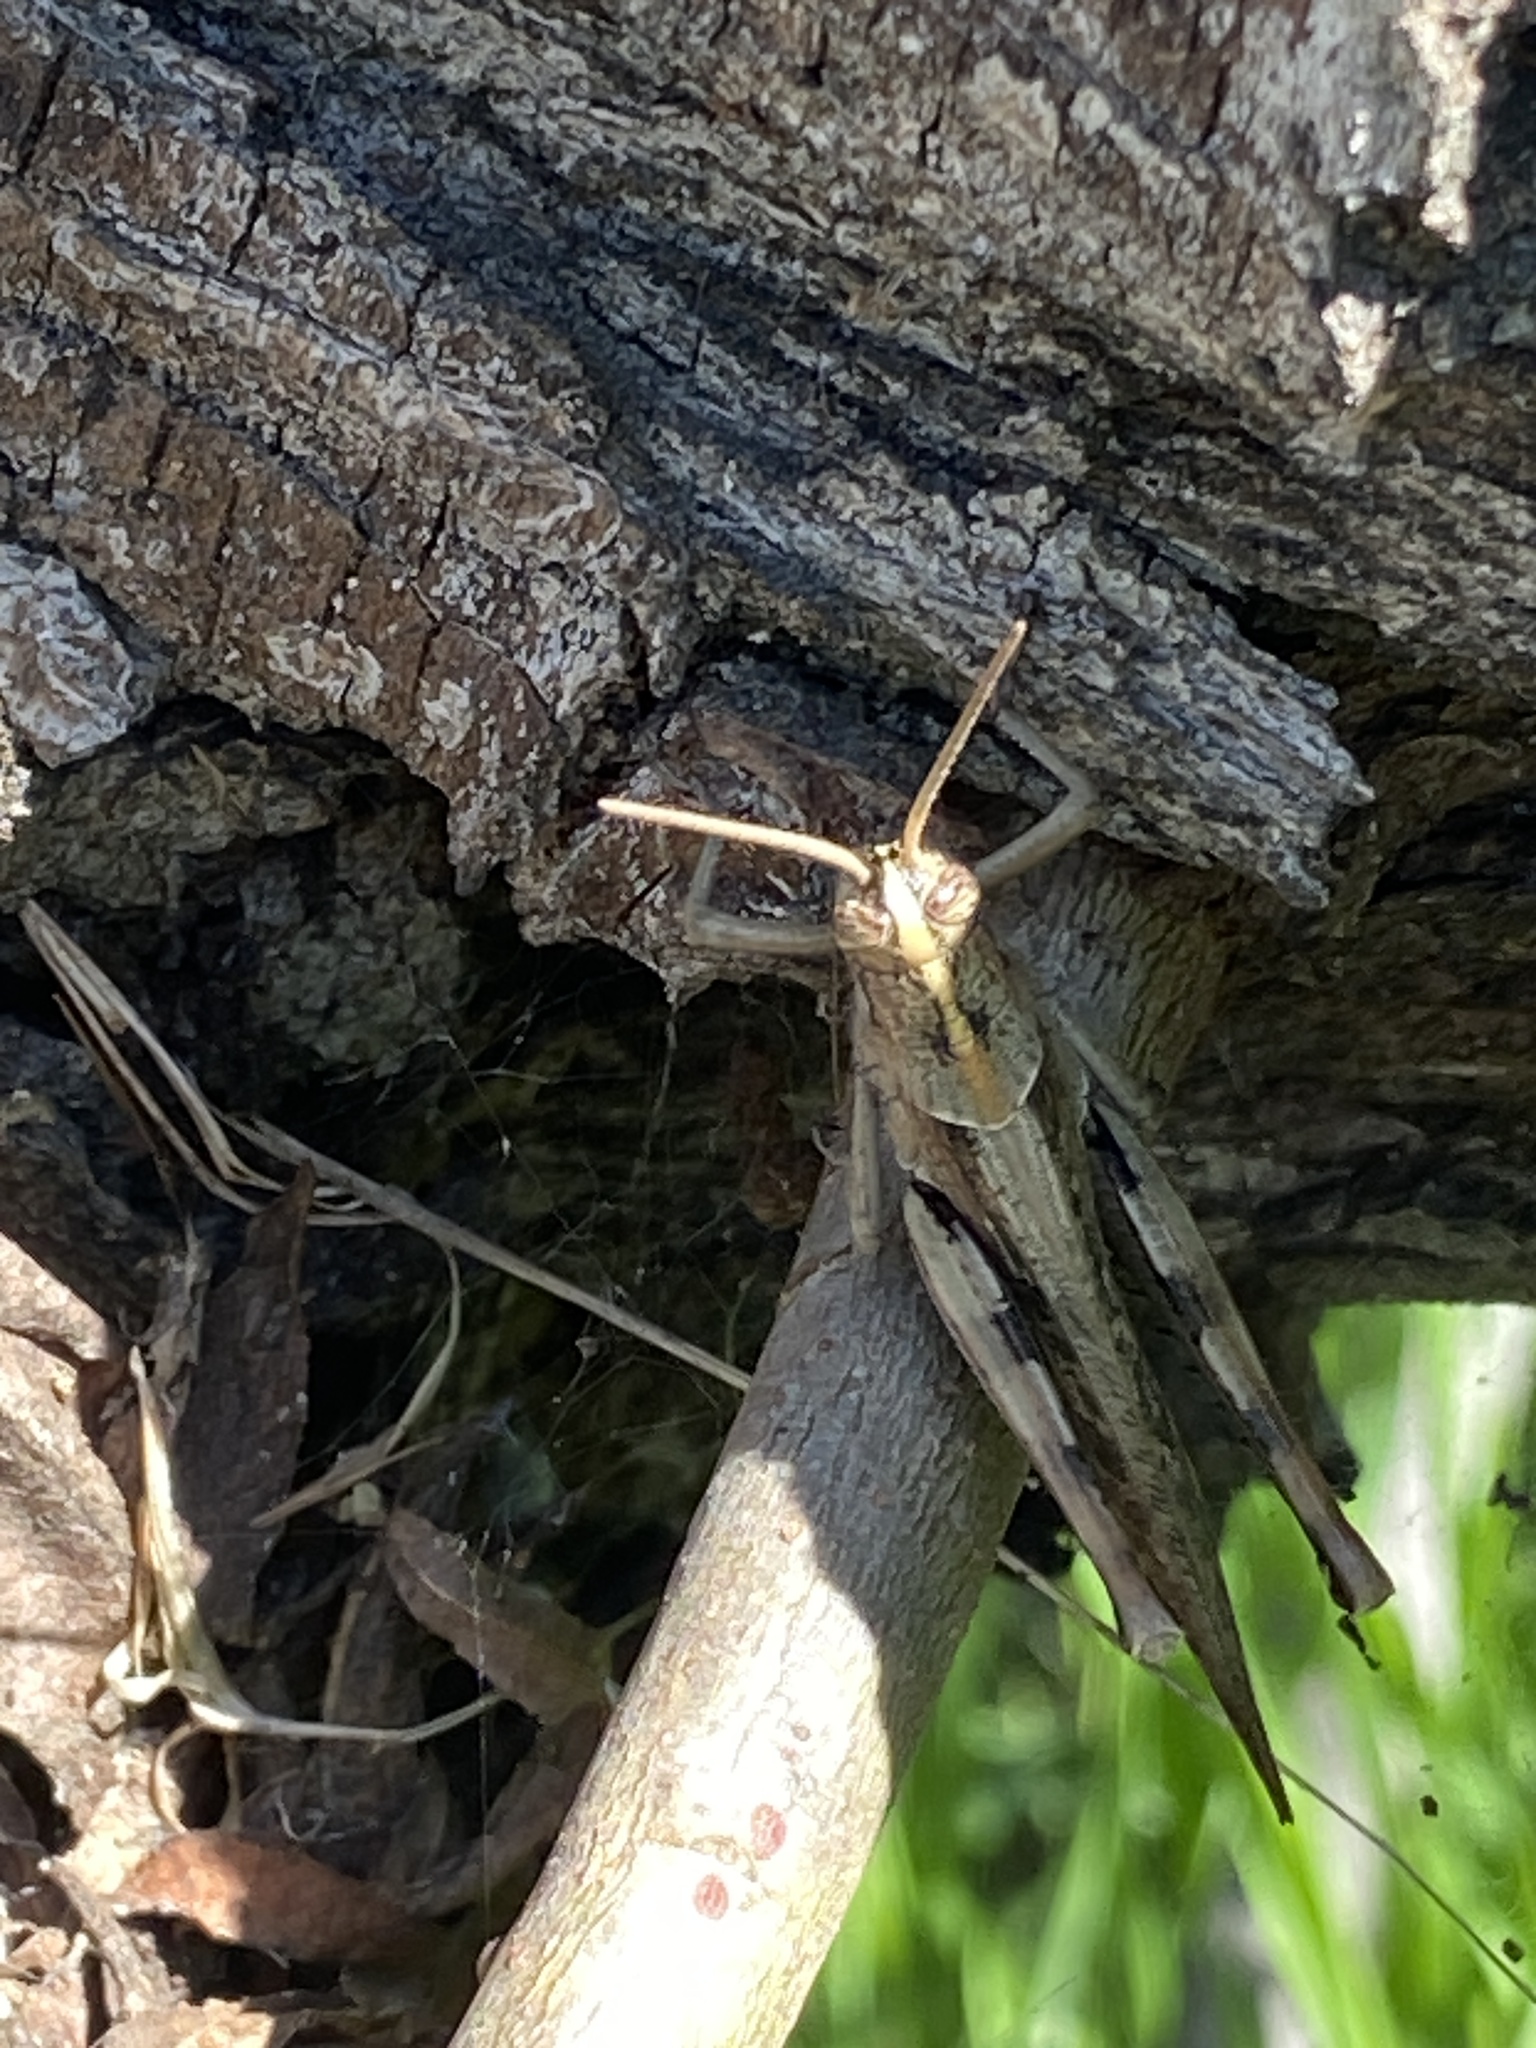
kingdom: Animalia
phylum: Arthropoda
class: Insecta
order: Orthoptera
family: Acrididae
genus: Schistocerca
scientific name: Schistocerca nitens
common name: Vagrant grasshopper
